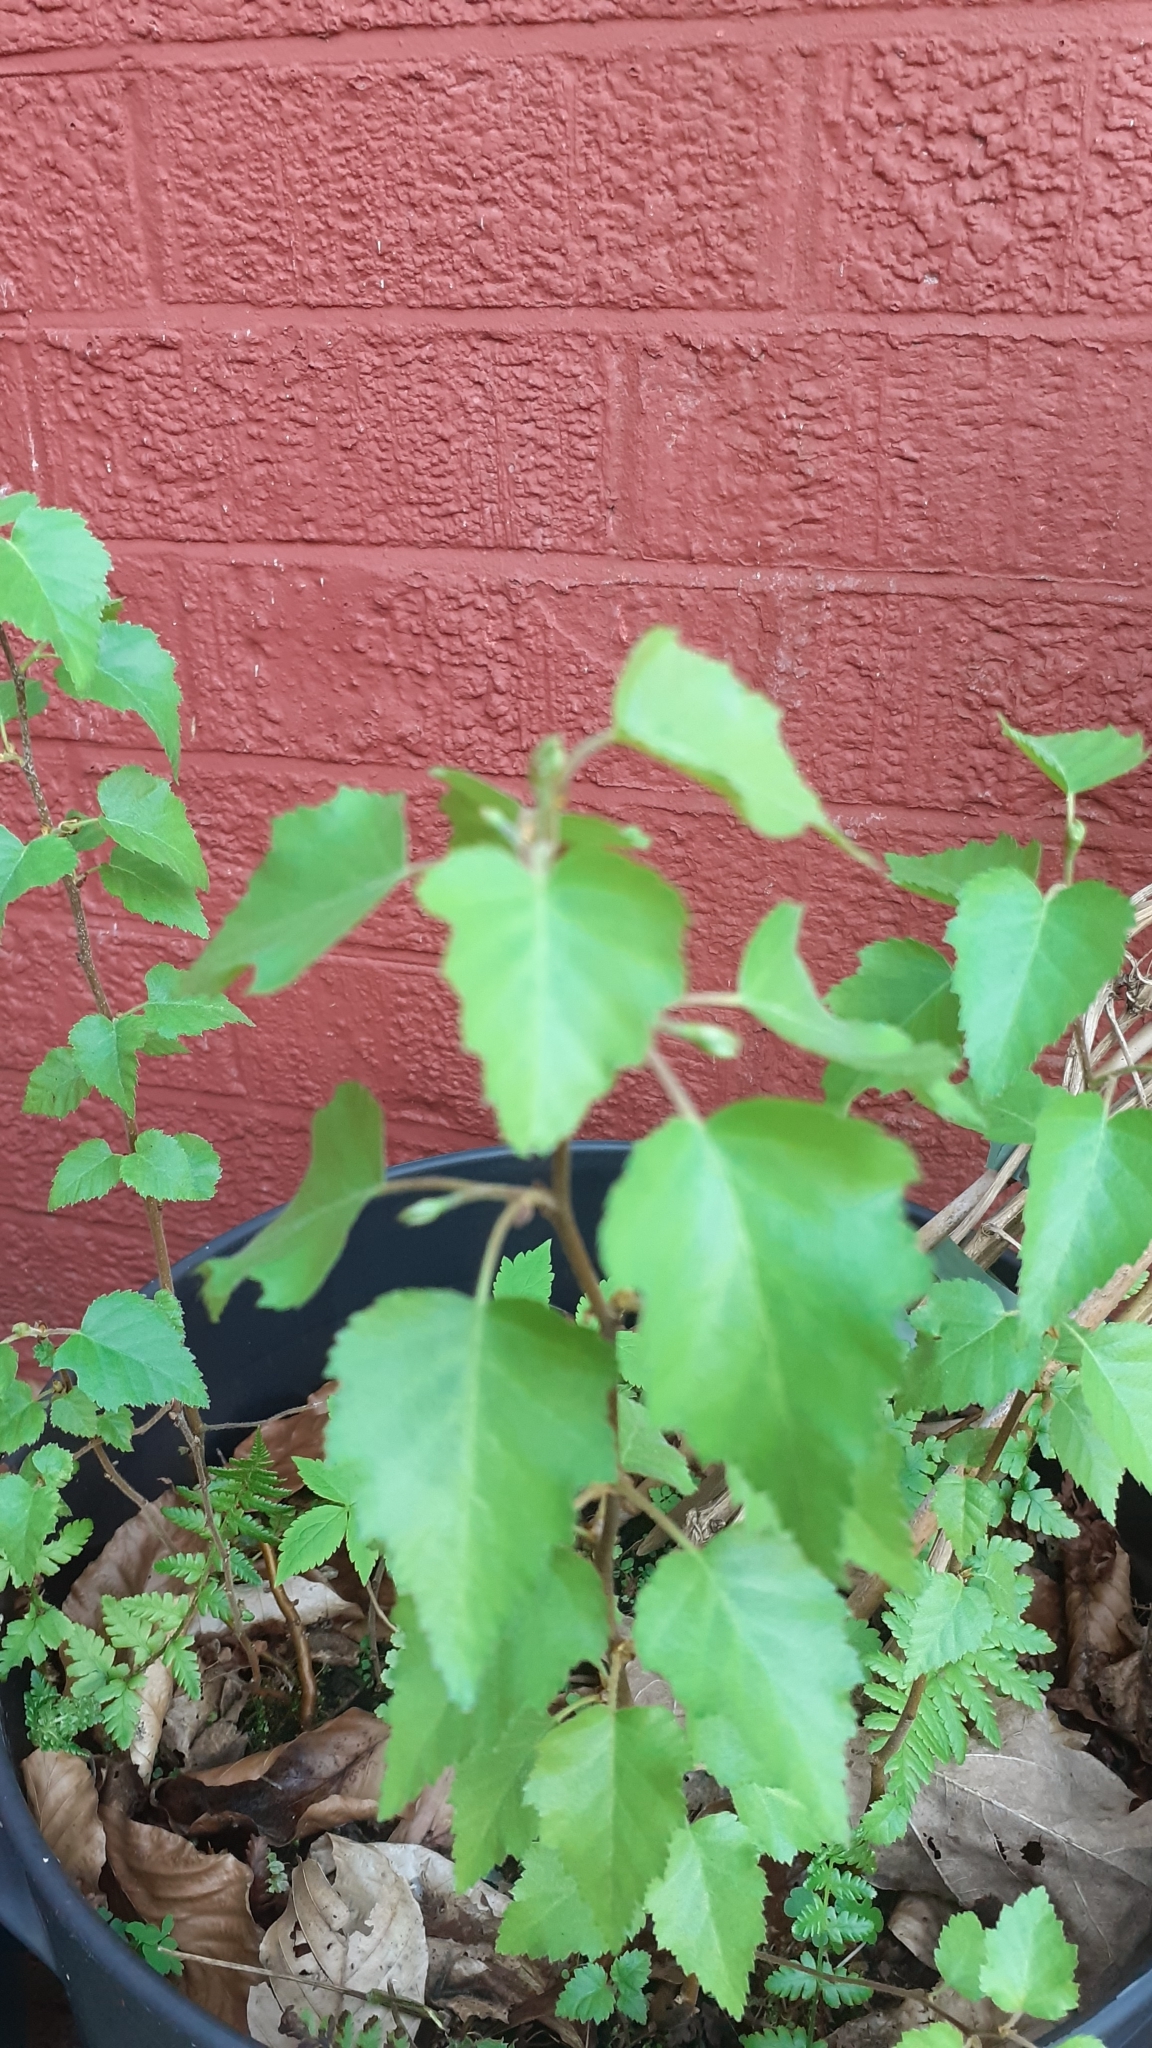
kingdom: Plantae
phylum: Tracheophyta
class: Magnoliopsida
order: Fagales
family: Betulaceae
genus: Betula
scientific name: Betula pendula
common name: Silver birch
